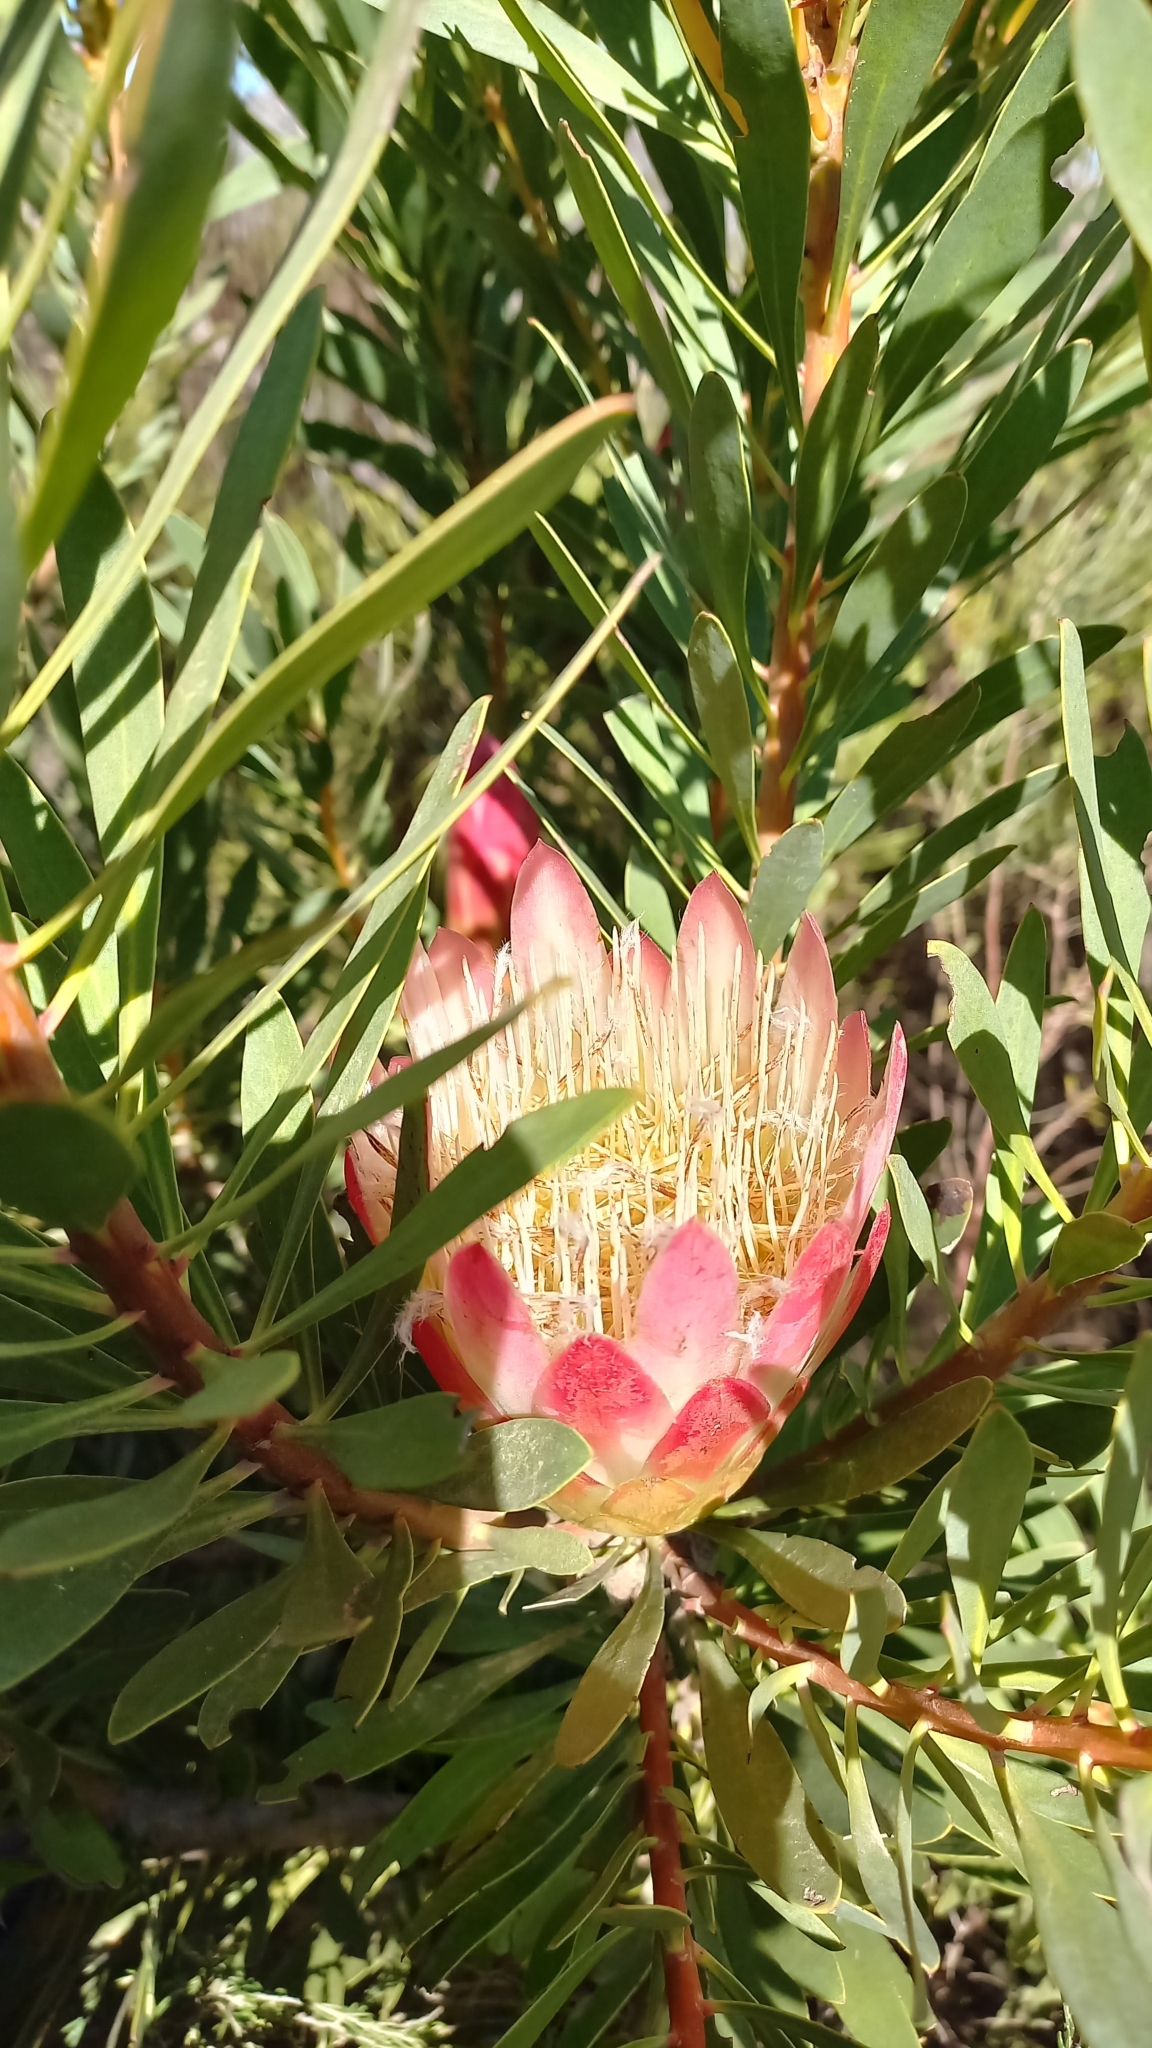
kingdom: Plantae
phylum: Tracheophyta
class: Magnoliopsida
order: Proteales
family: Proteaceae
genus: Protea
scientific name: Protea repens
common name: Sugarbush
